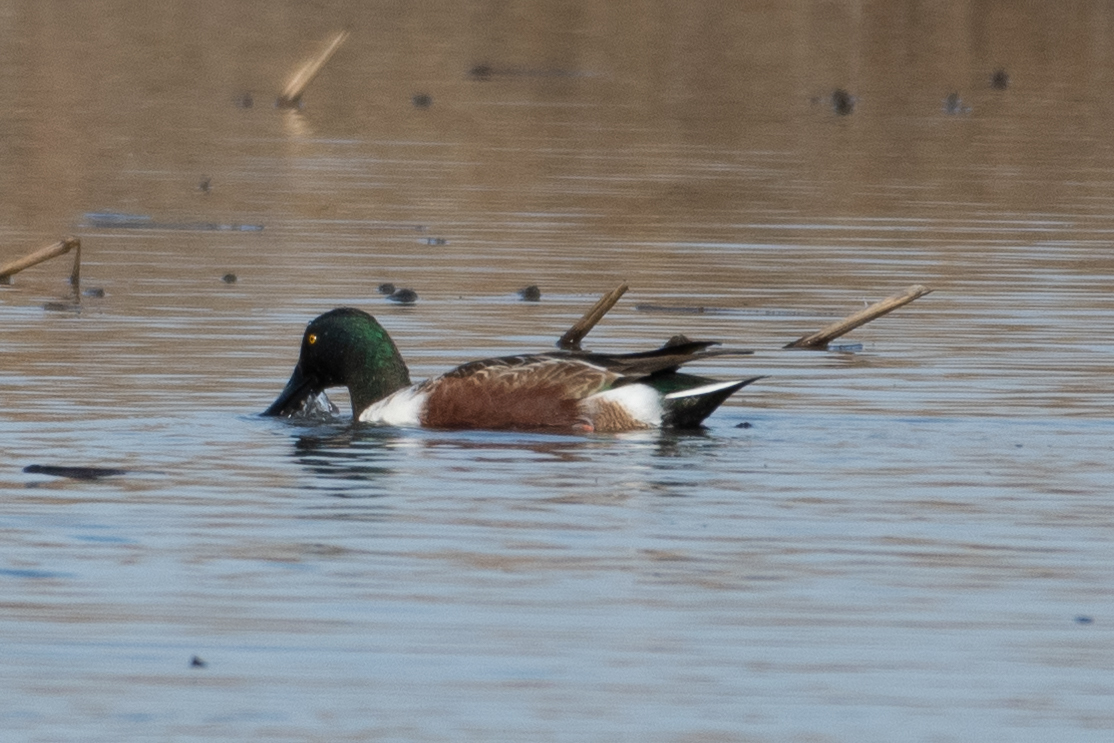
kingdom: Animalia
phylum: Chordata
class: Aves
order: Anseriformes
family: Anatidae
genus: Spatula
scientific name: Spatula clypeata
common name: Northern shoveler
